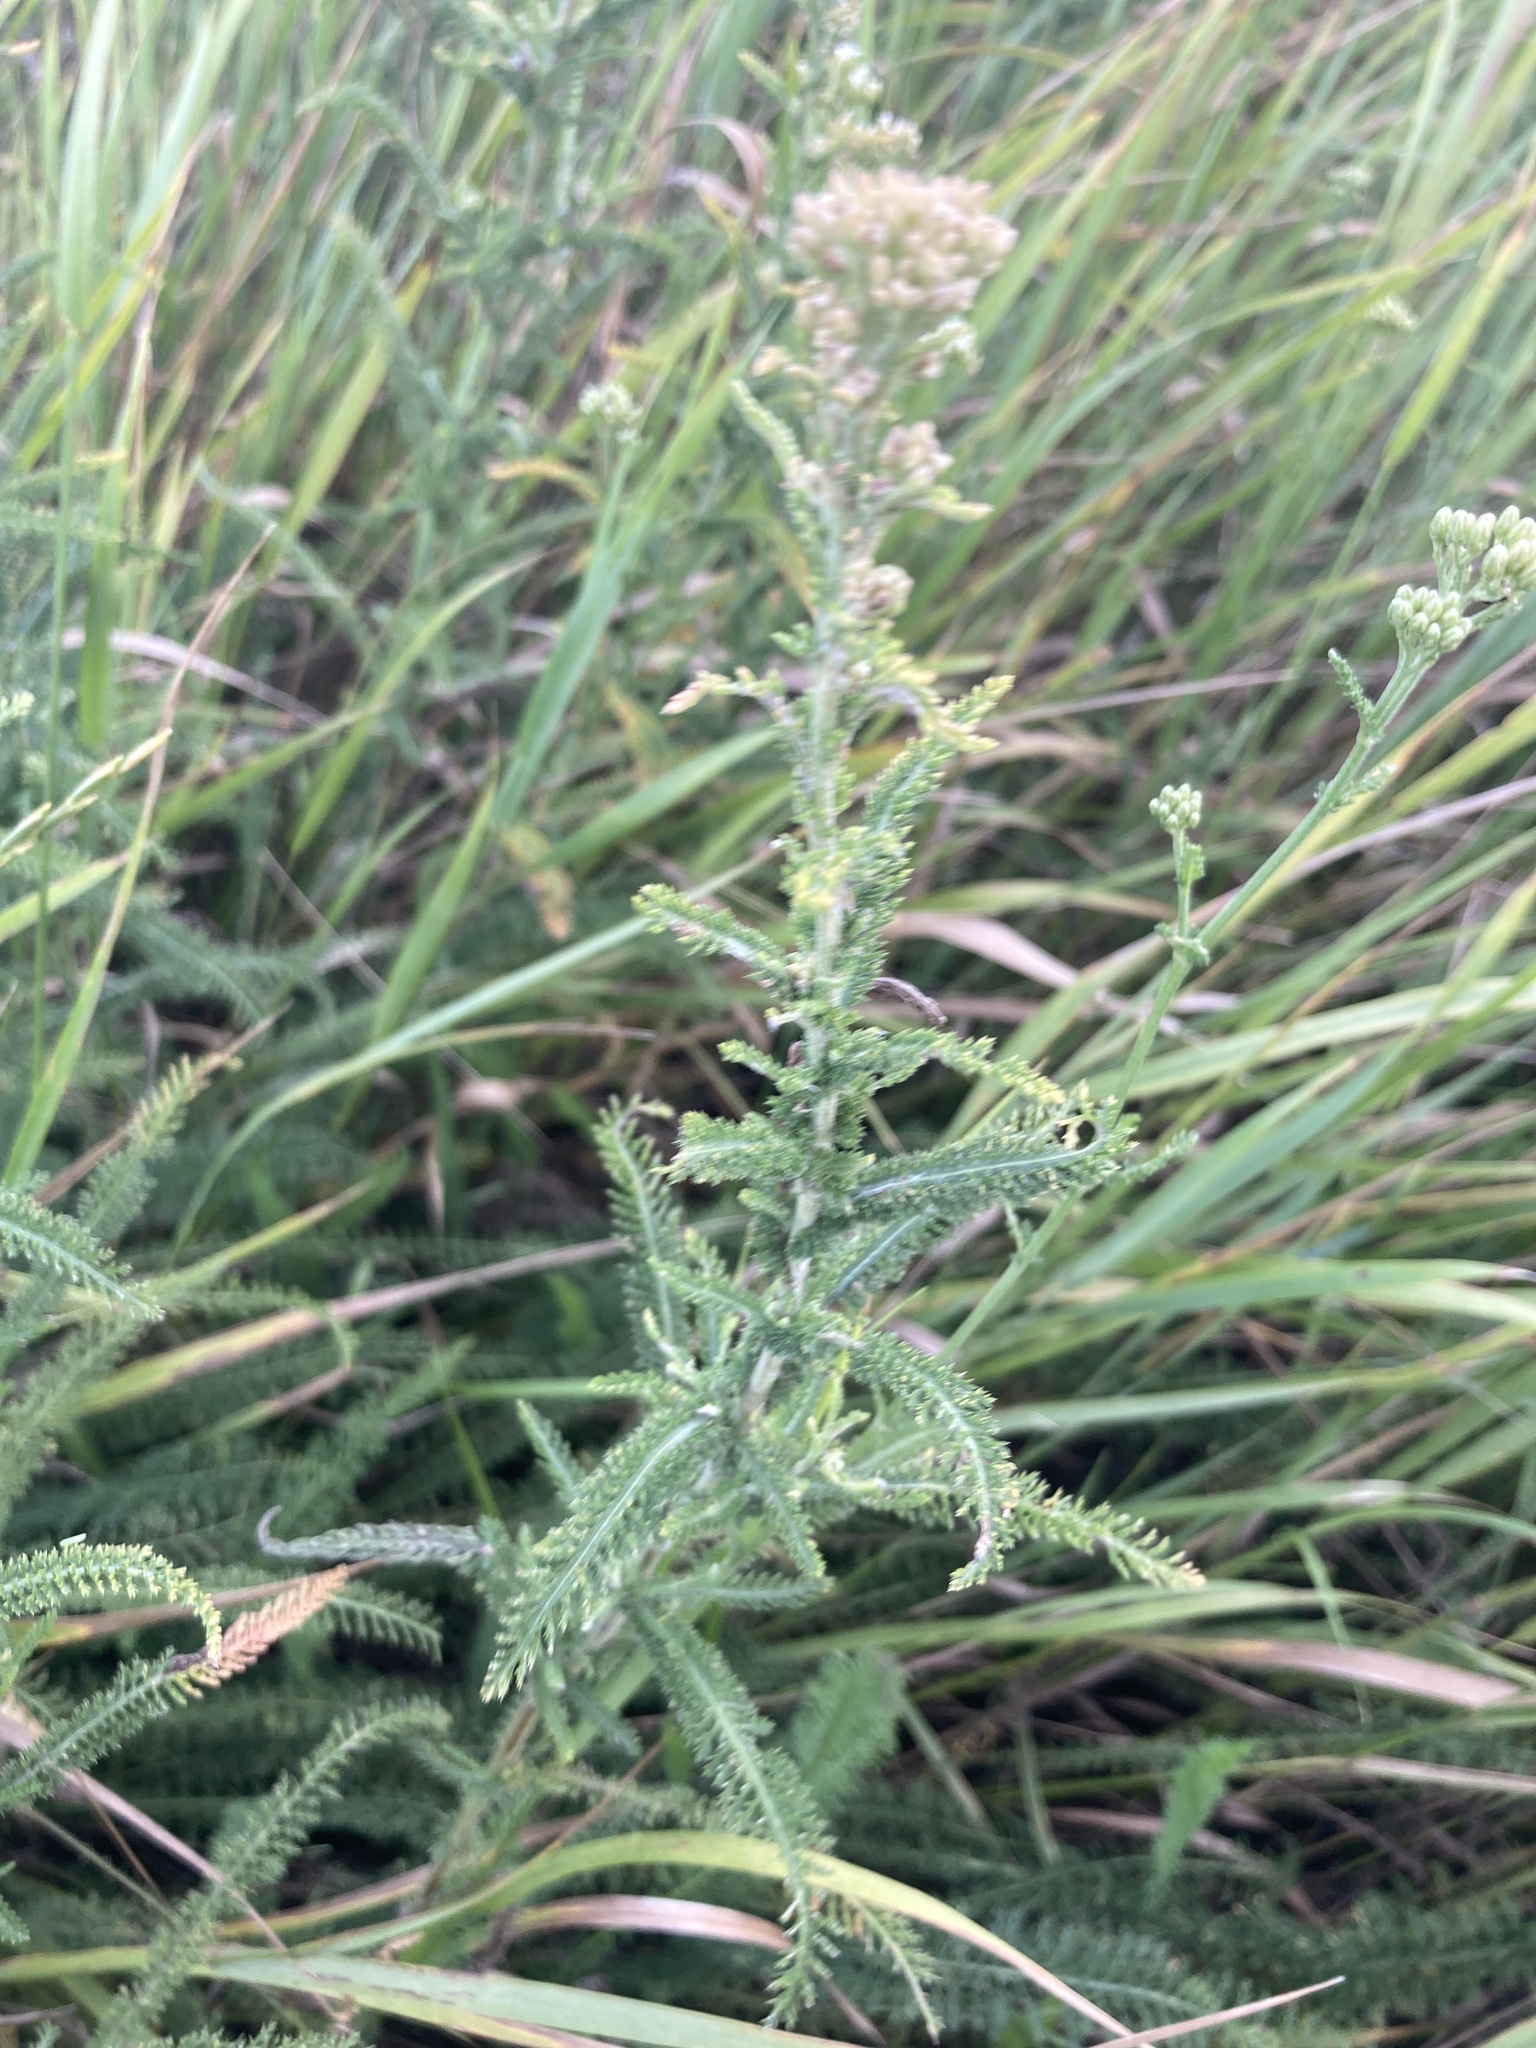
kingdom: Plantae
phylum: Tracheophyta
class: Magnoliopsida
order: Asterales
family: Asteraceae
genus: Achillea
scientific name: Achillea setacea
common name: Bristly yarrow
